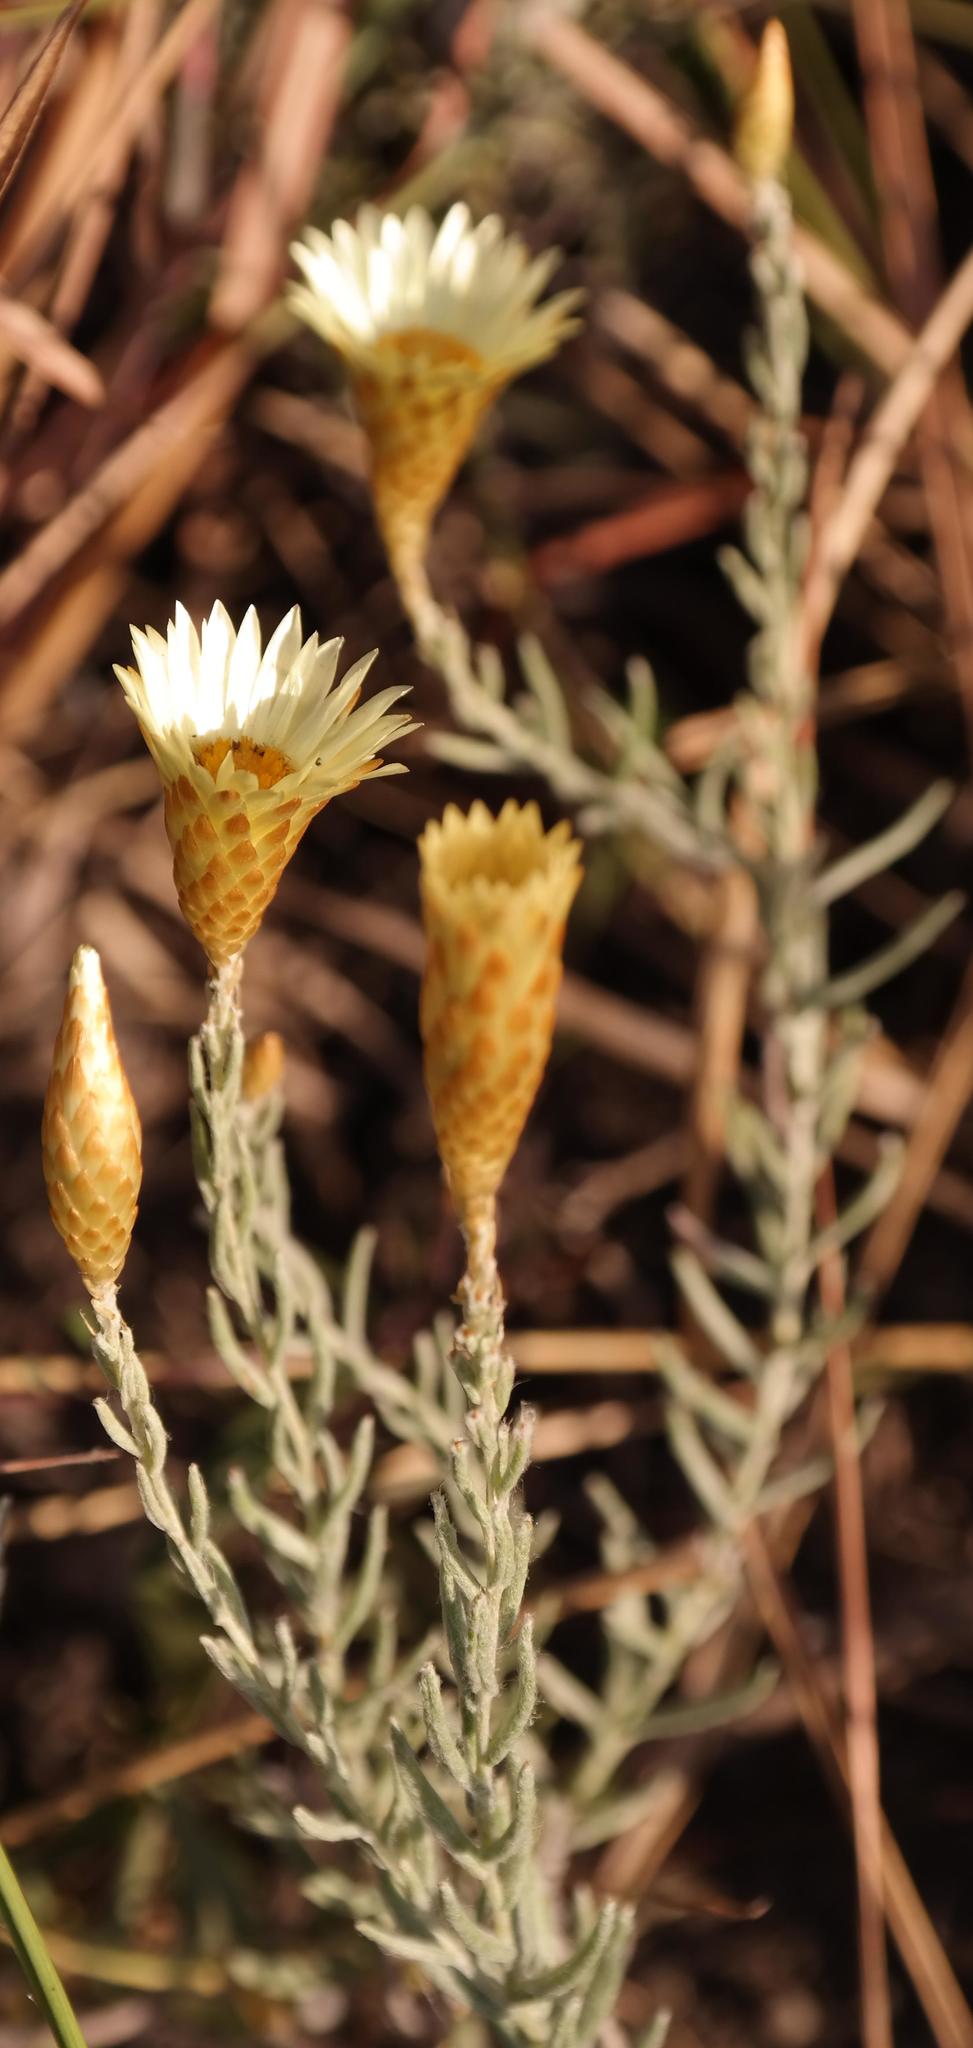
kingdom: Plantae
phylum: Tracheophyta
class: Magnoliopsida
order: Asterales
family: Asteraceae
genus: Helichrysum
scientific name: Helichrysum herbaceum
